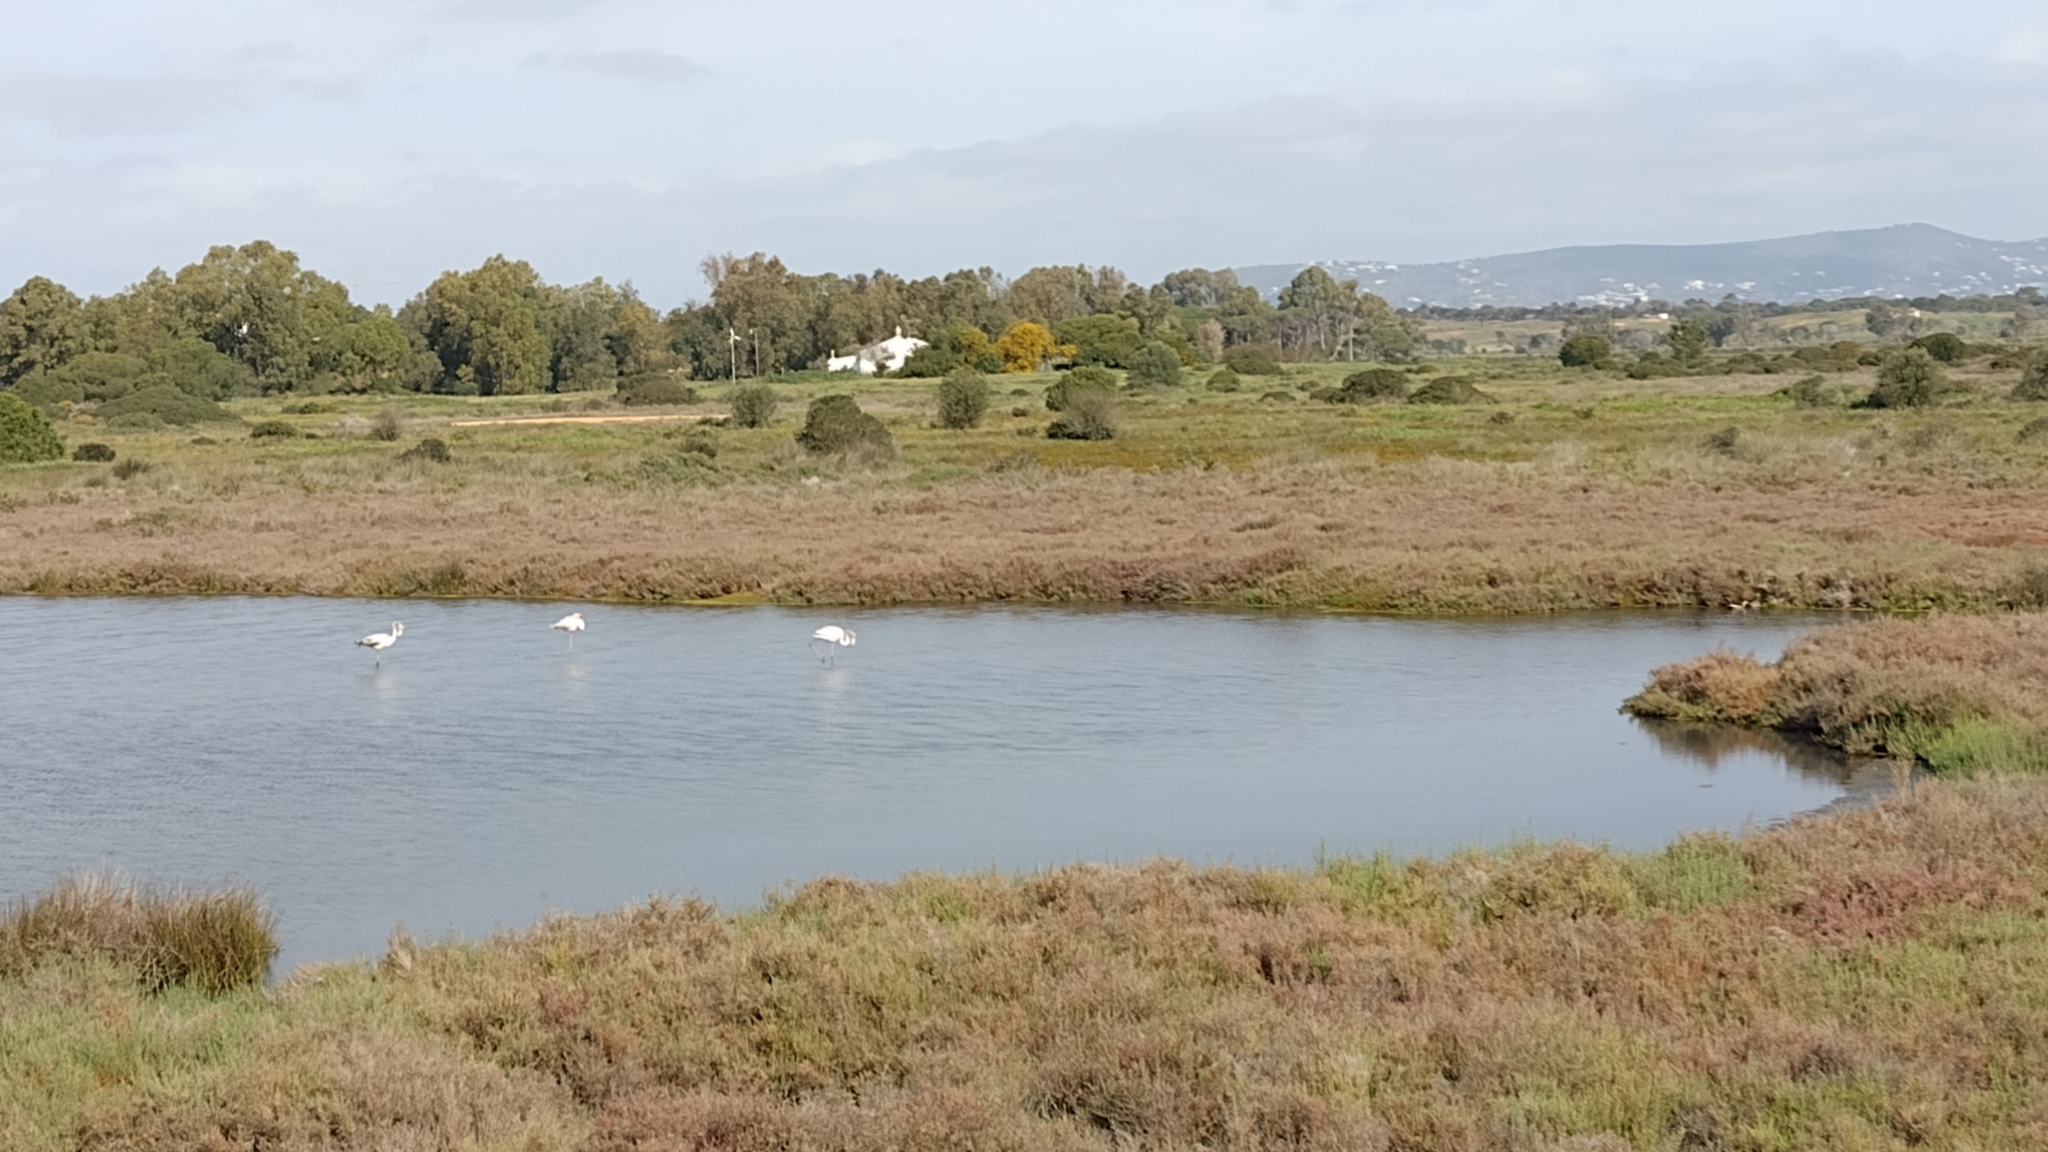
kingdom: Animalia
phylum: Chordata
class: Aves
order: Phoenicopteriformes
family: Phoenicopteridae
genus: Phoenicopterus
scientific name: Phoenicopterus roseus
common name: Greater flamingo
